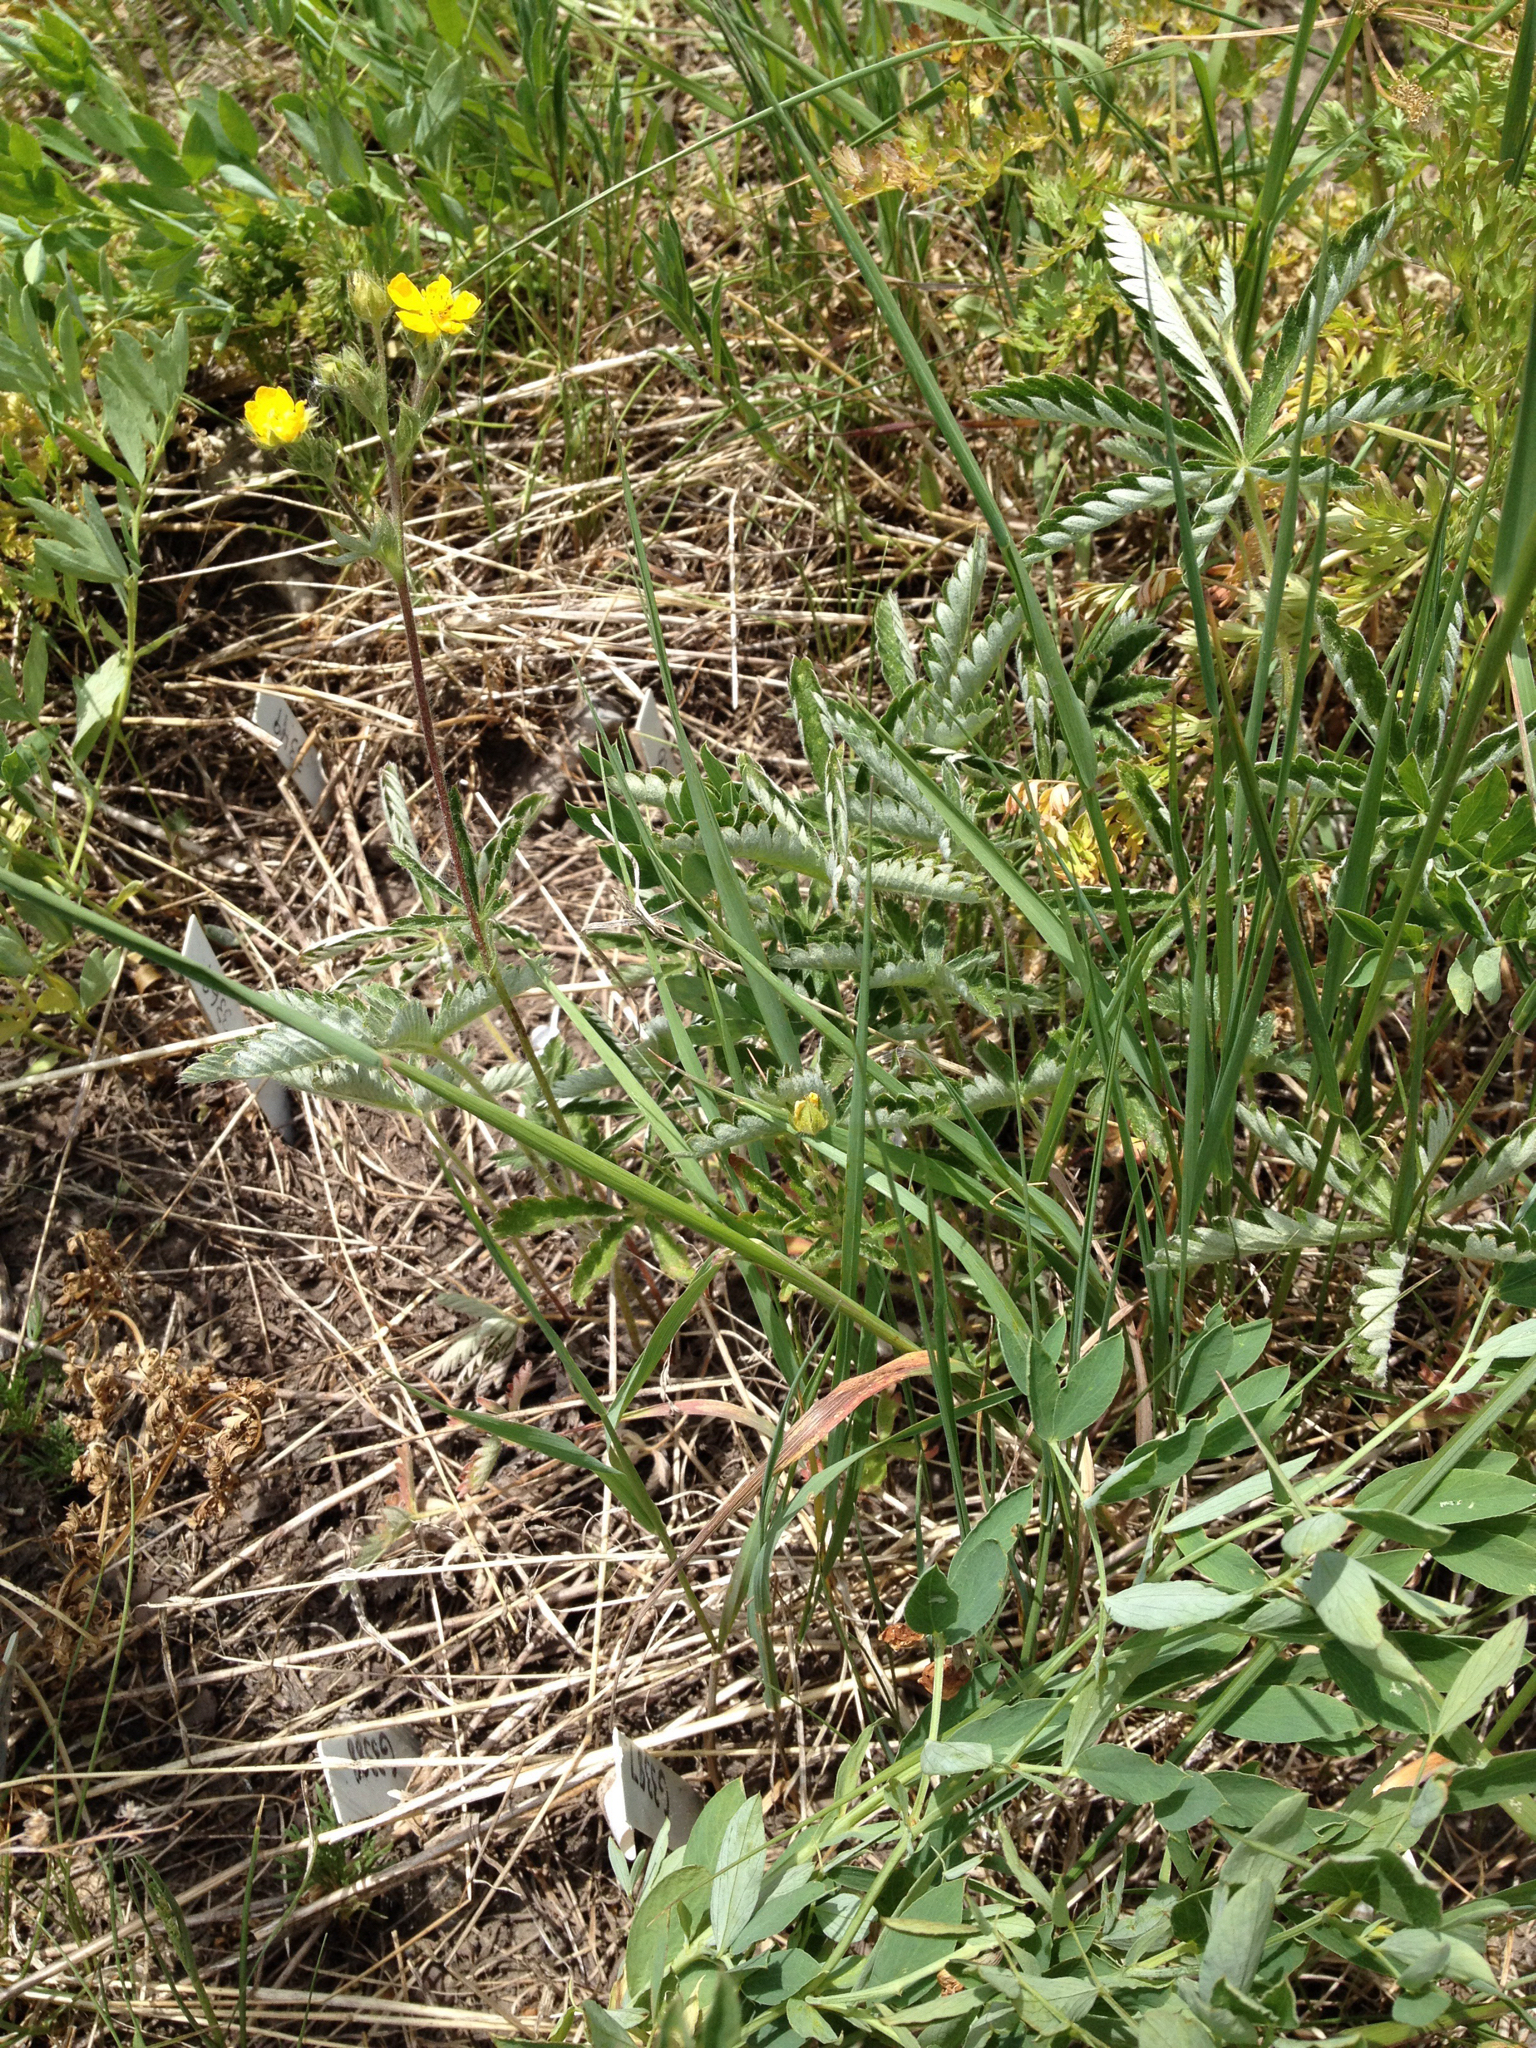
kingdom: Plantae
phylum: Tracheophyta
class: Magnoliopsida
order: Rosales
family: Rosaceae
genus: Potentilla
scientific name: Potentilla pulcherrima
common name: Beautiful cinquefoil
